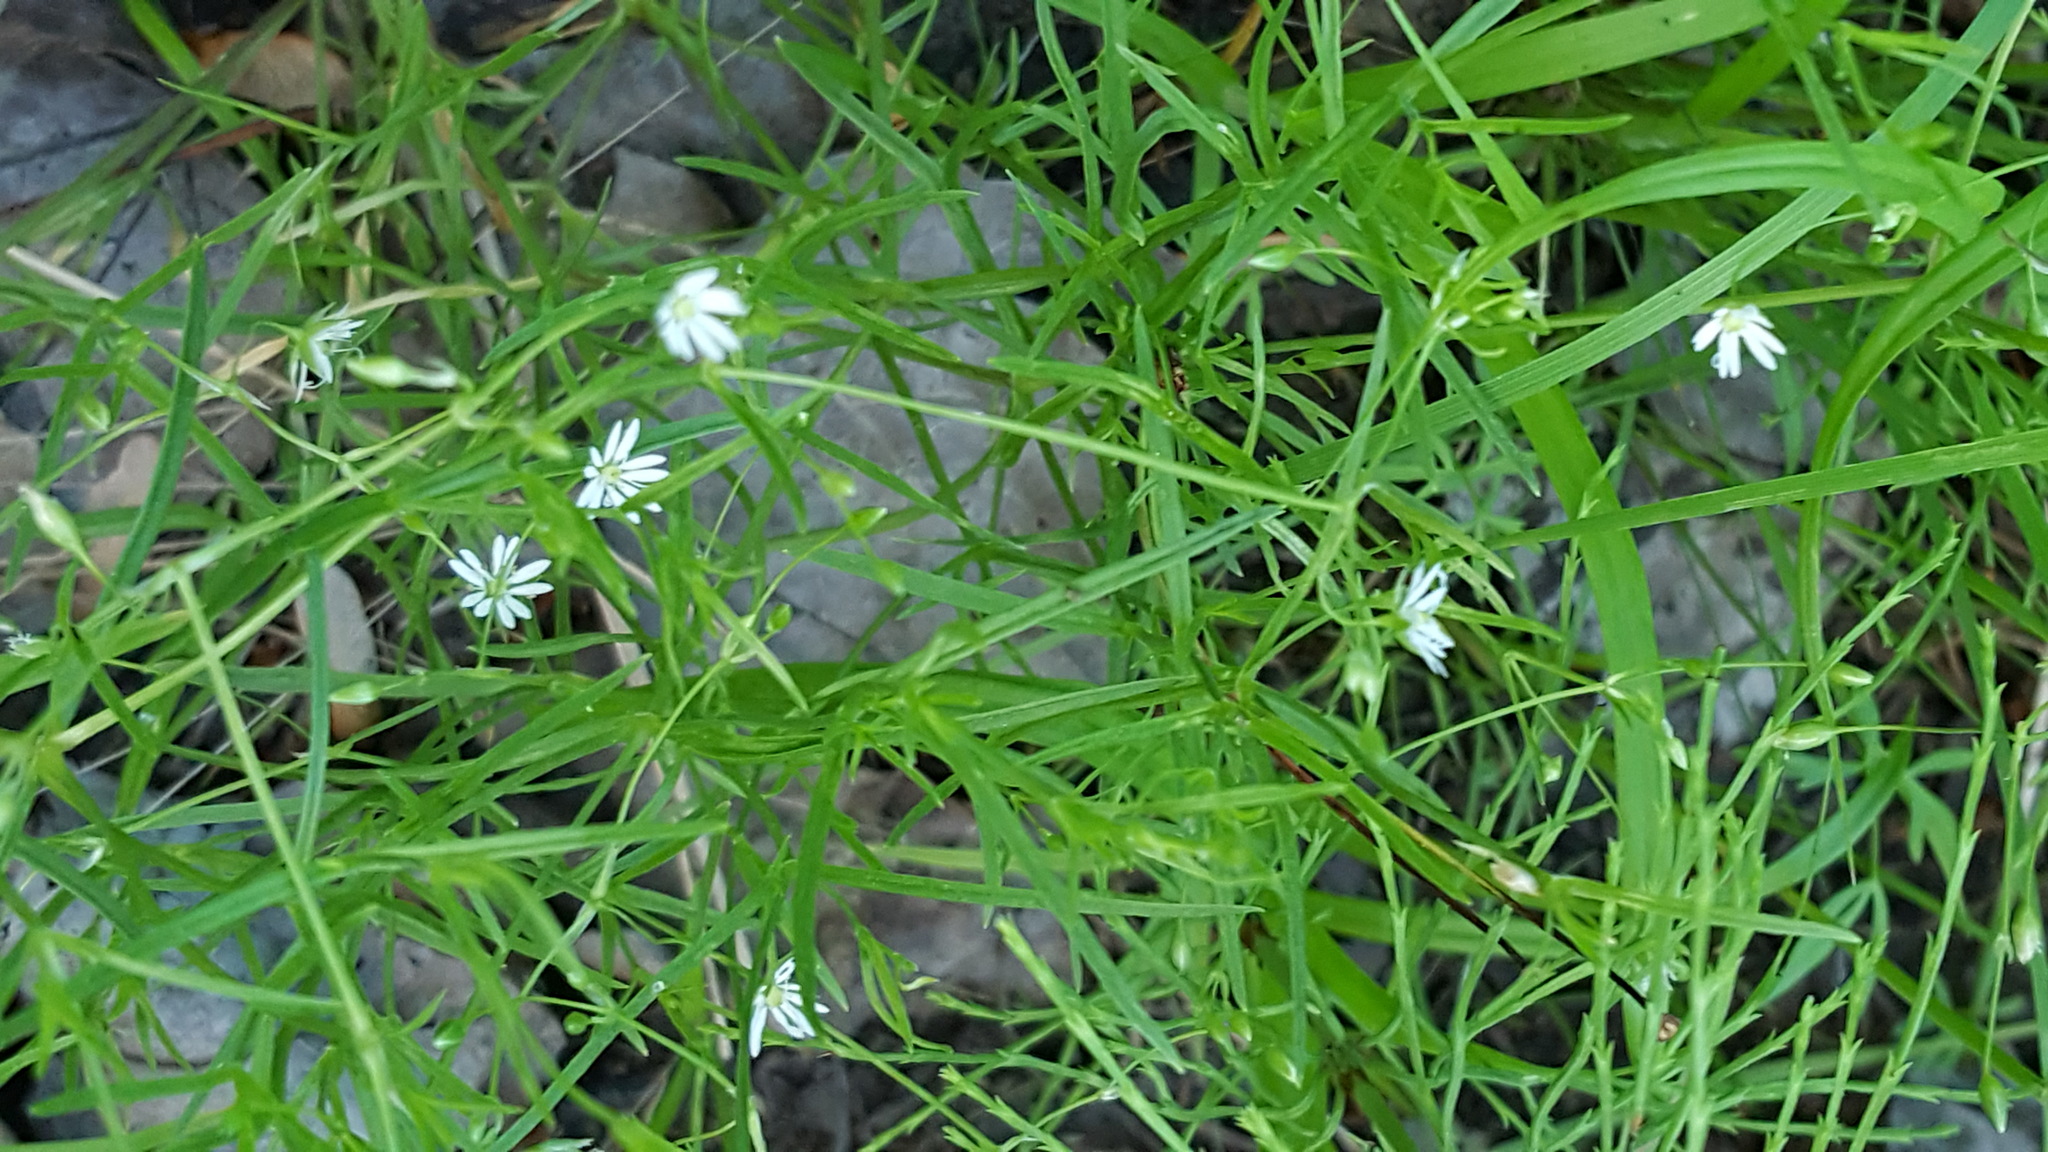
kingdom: Plantae
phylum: Tracheophyta
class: Magnoliopsida
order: Caryophyllales
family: Caryophyllaceae
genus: Stellaria
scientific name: Stellaria longifolia
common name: Long-leaved chickweed
